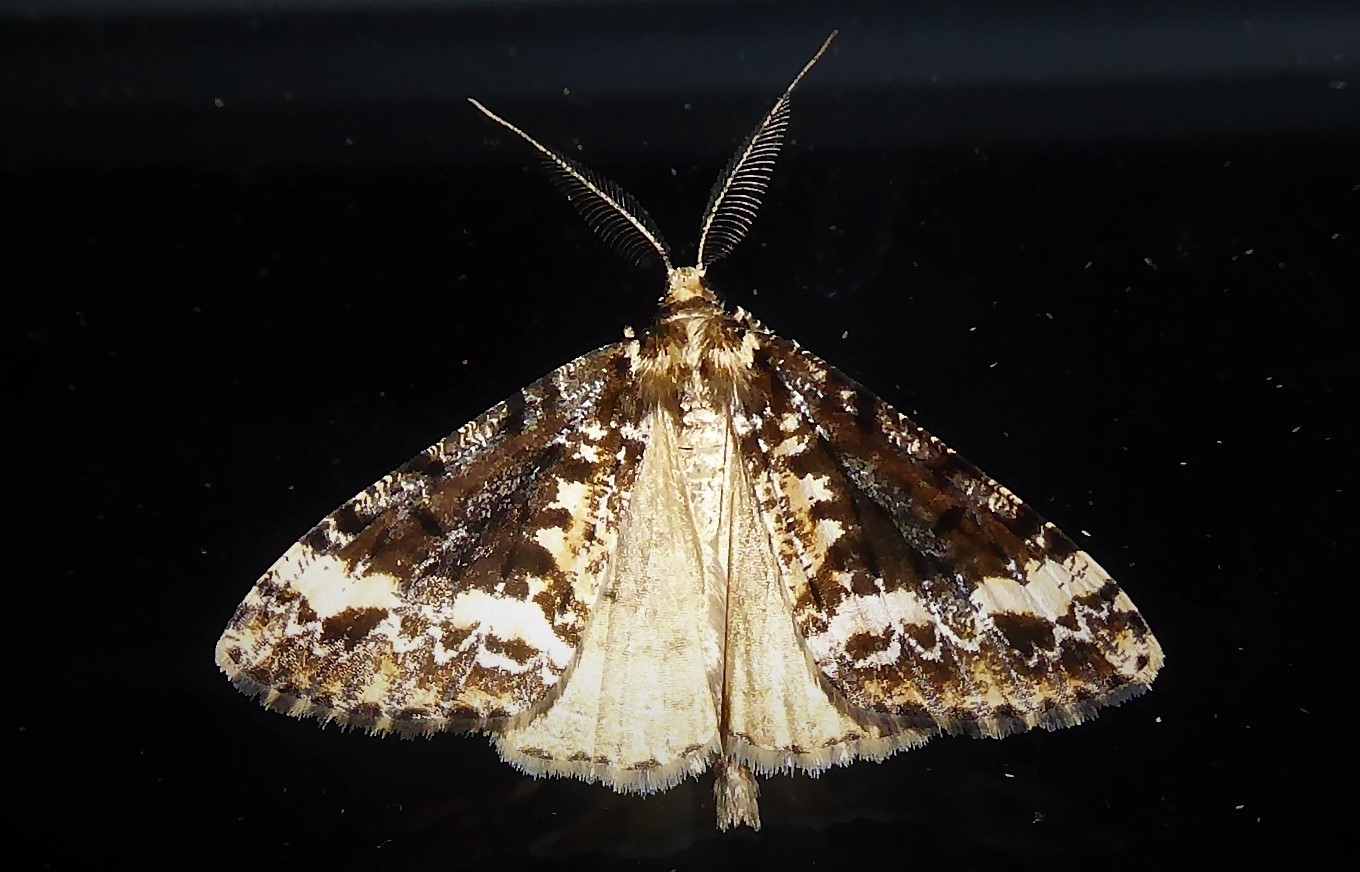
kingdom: Animalia
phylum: Arthropoda
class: Insecta
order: Lepidoptera
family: Geometridae
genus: Pseudocoremia
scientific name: Pseudocoremia leucelaea
